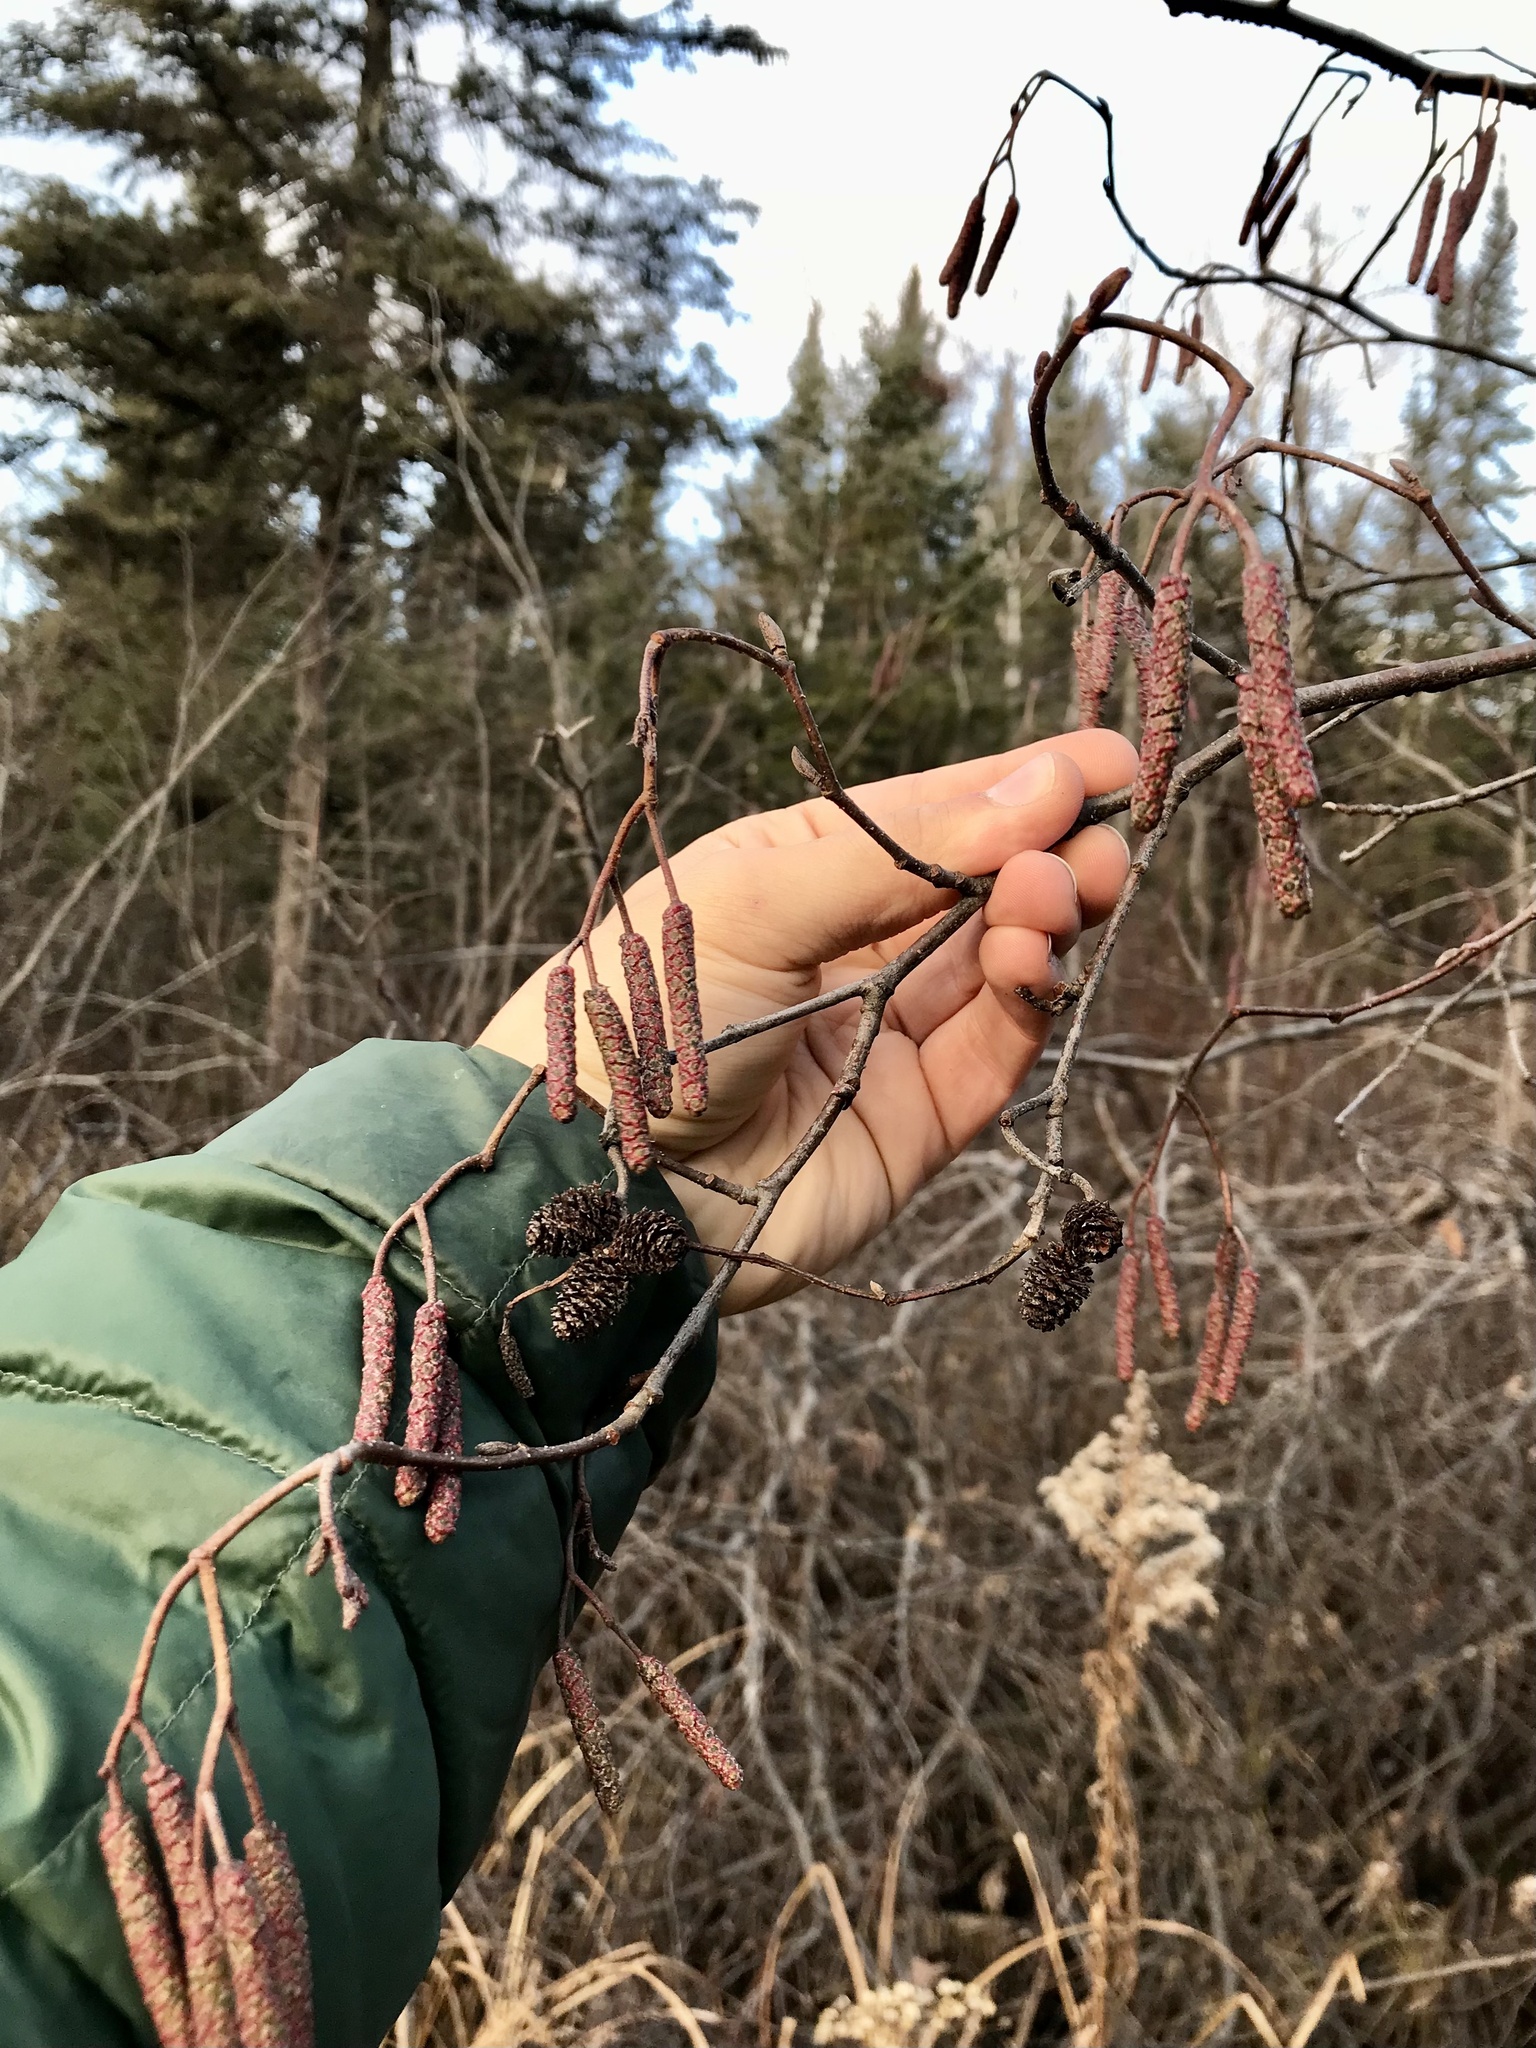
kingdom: Plantae
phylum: Tracheophyta
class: Magnoliopsida
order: Fagales
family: Betulaceae
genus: Alnus
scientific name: Alnus incana
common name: Grey alder
